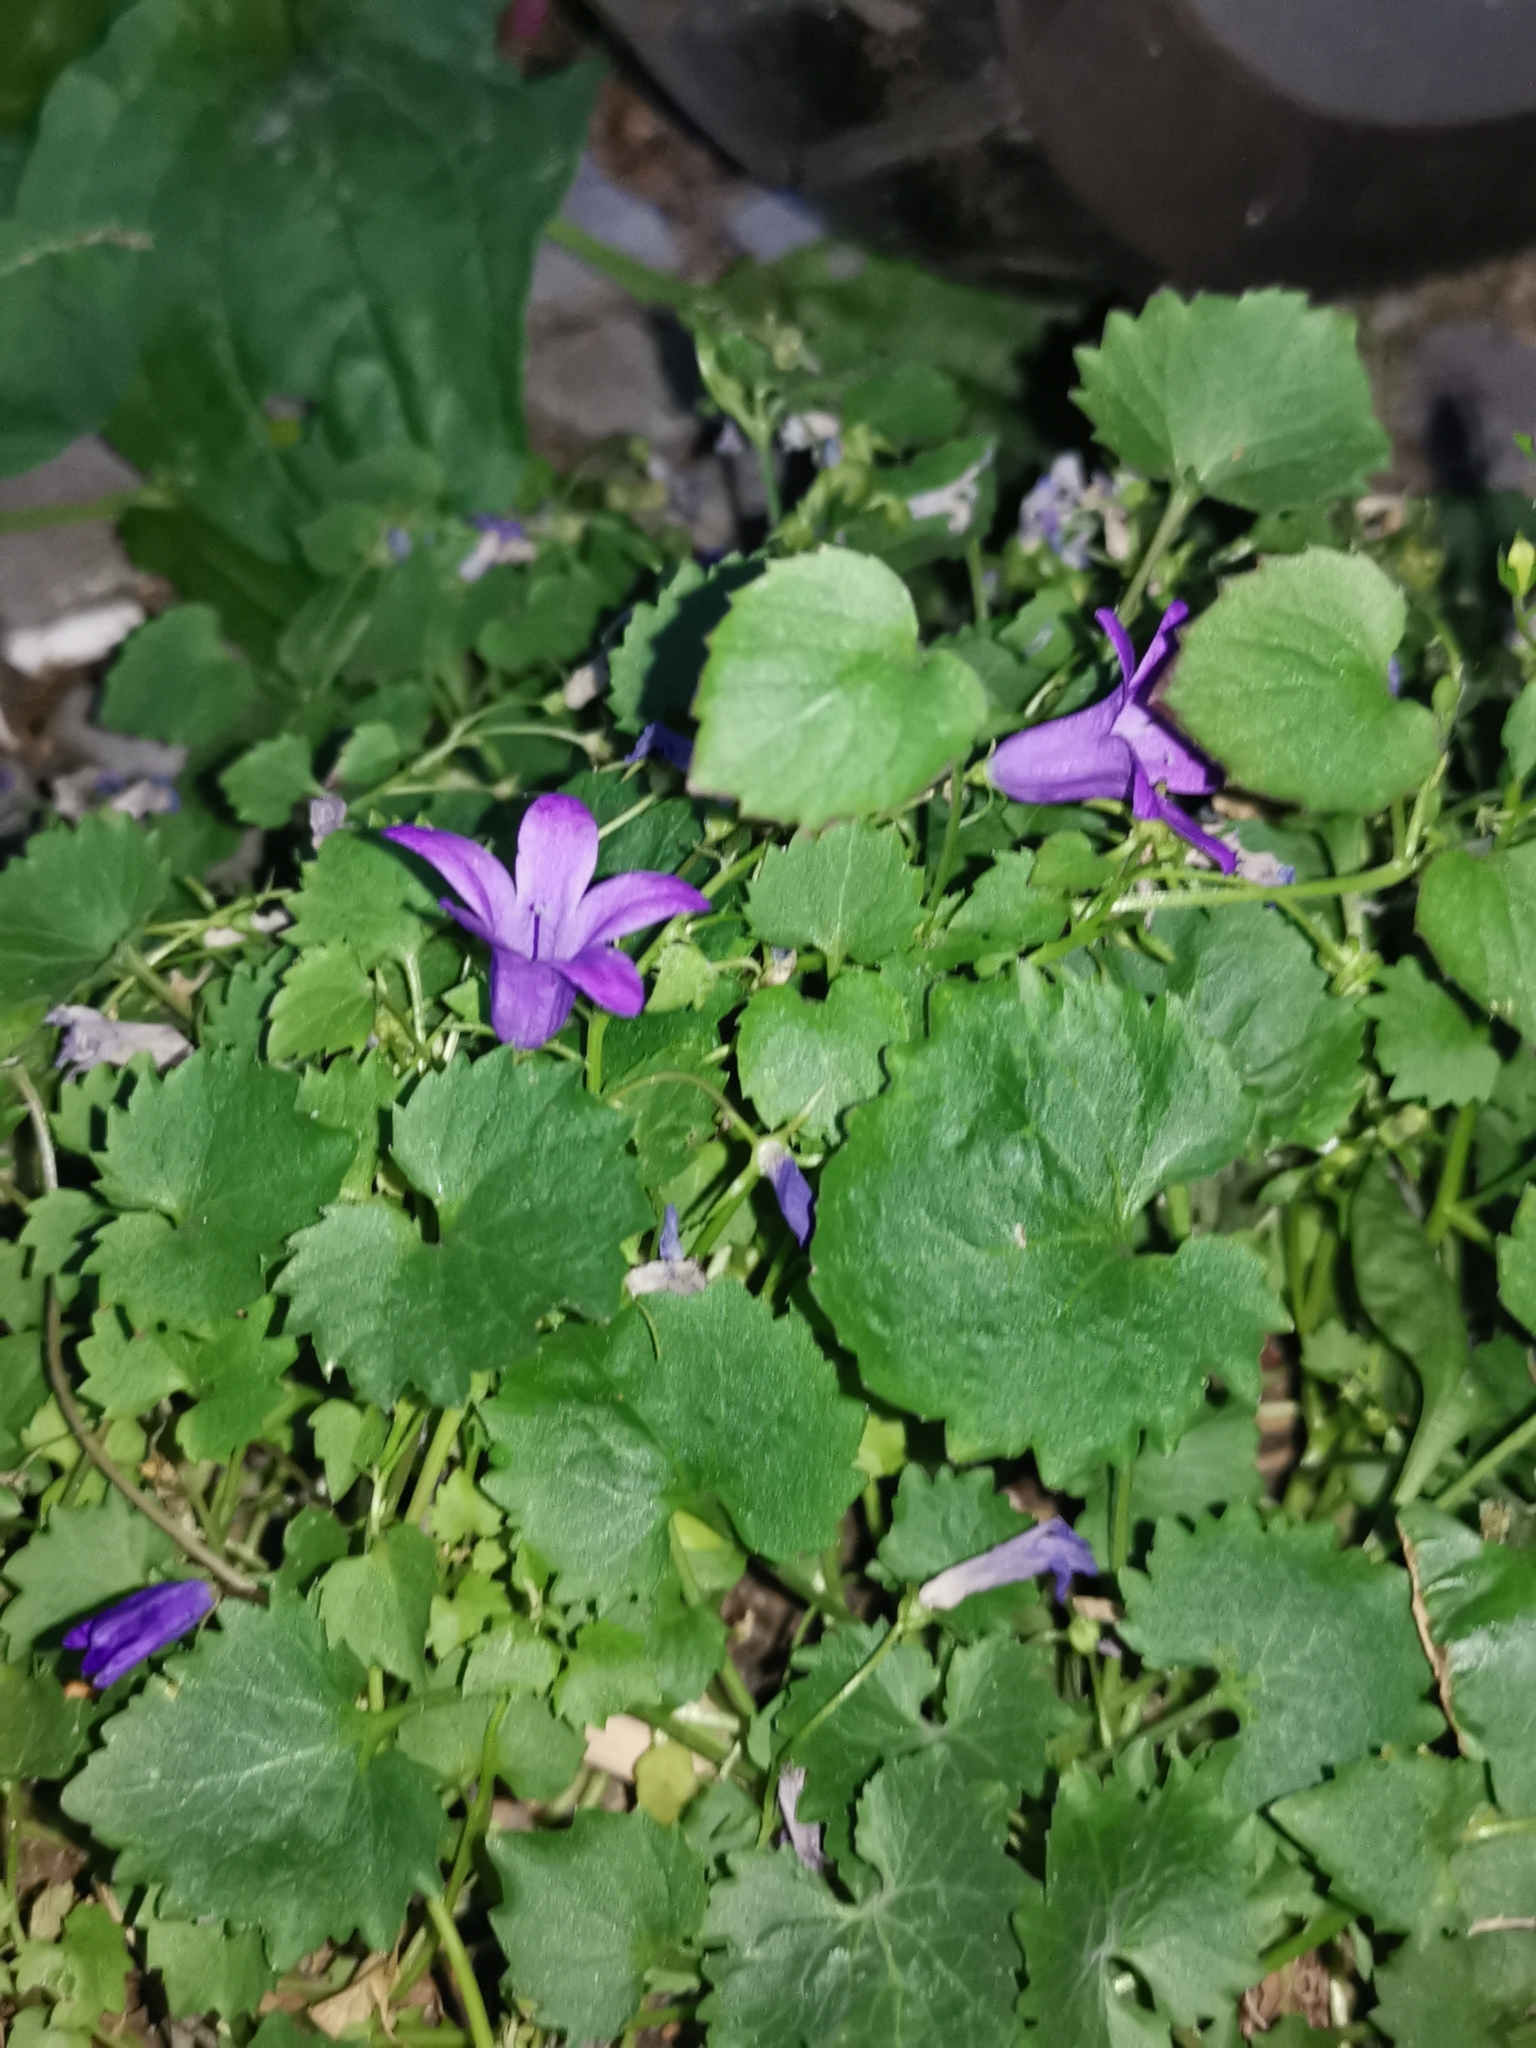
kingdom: Plantae
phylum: Tracheophyta
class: Magnoliopsida
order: Asterales
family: Campanulaceae
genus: Campanula
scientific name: Campanula poscharskyana
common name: Trailing bellflower
